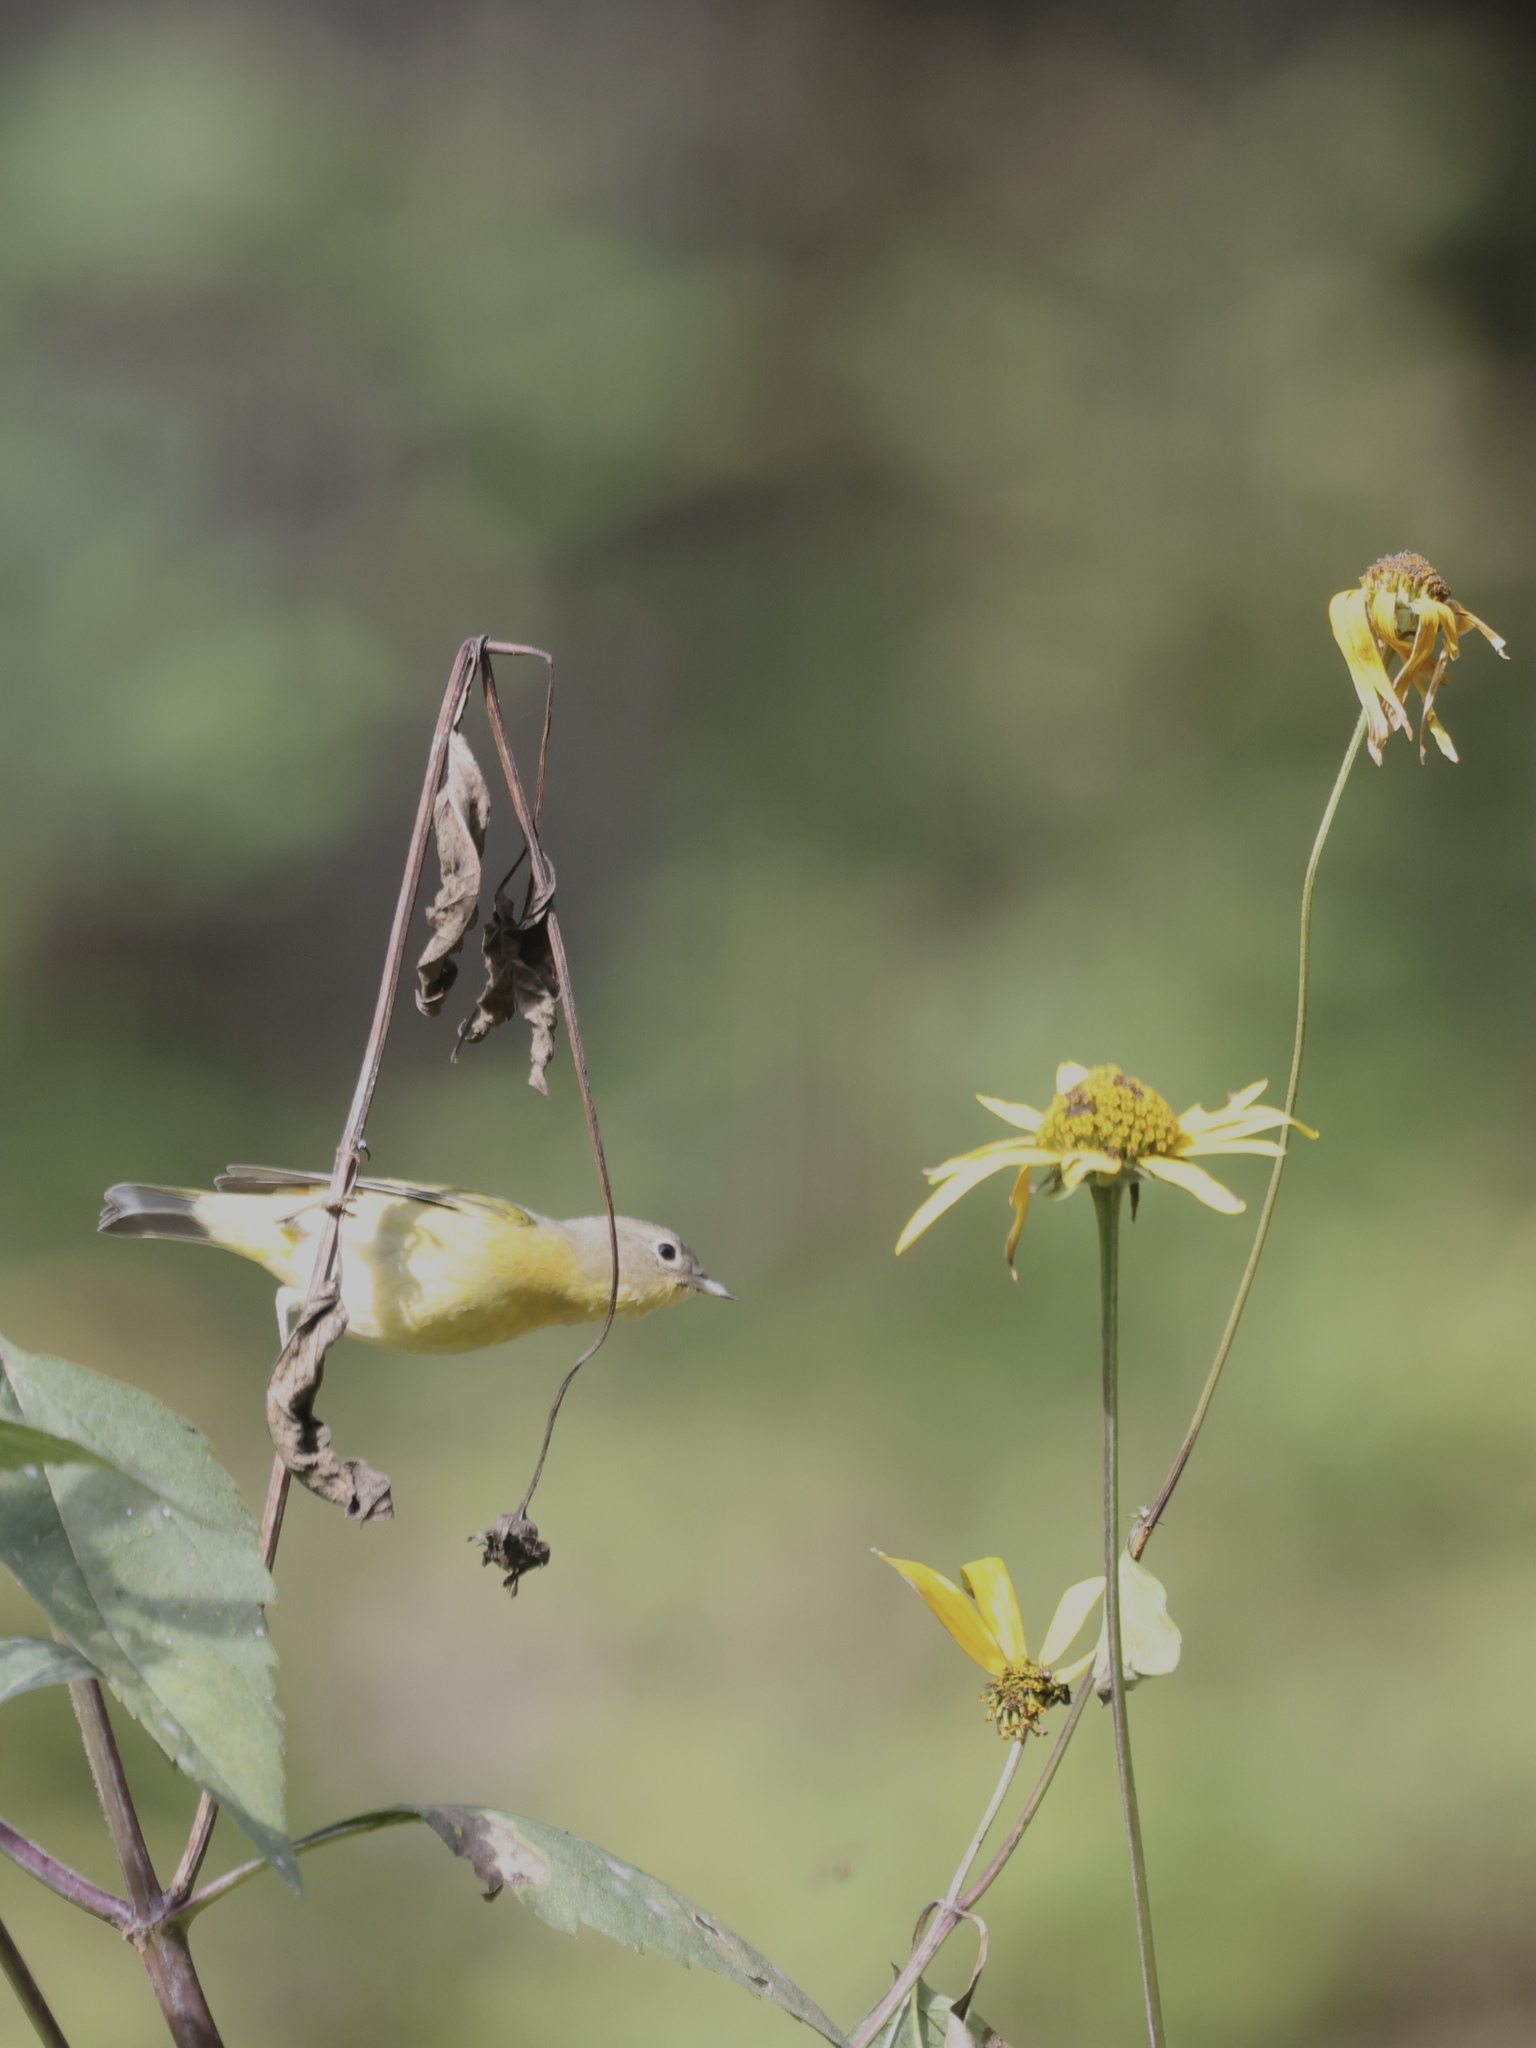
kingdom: Animalia
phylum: Chordata
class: Aves
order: Passeriformes
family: Parulidae
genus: Leiothlypis
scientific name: Leiothlypis ruficapilla
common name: Nashville warbler
